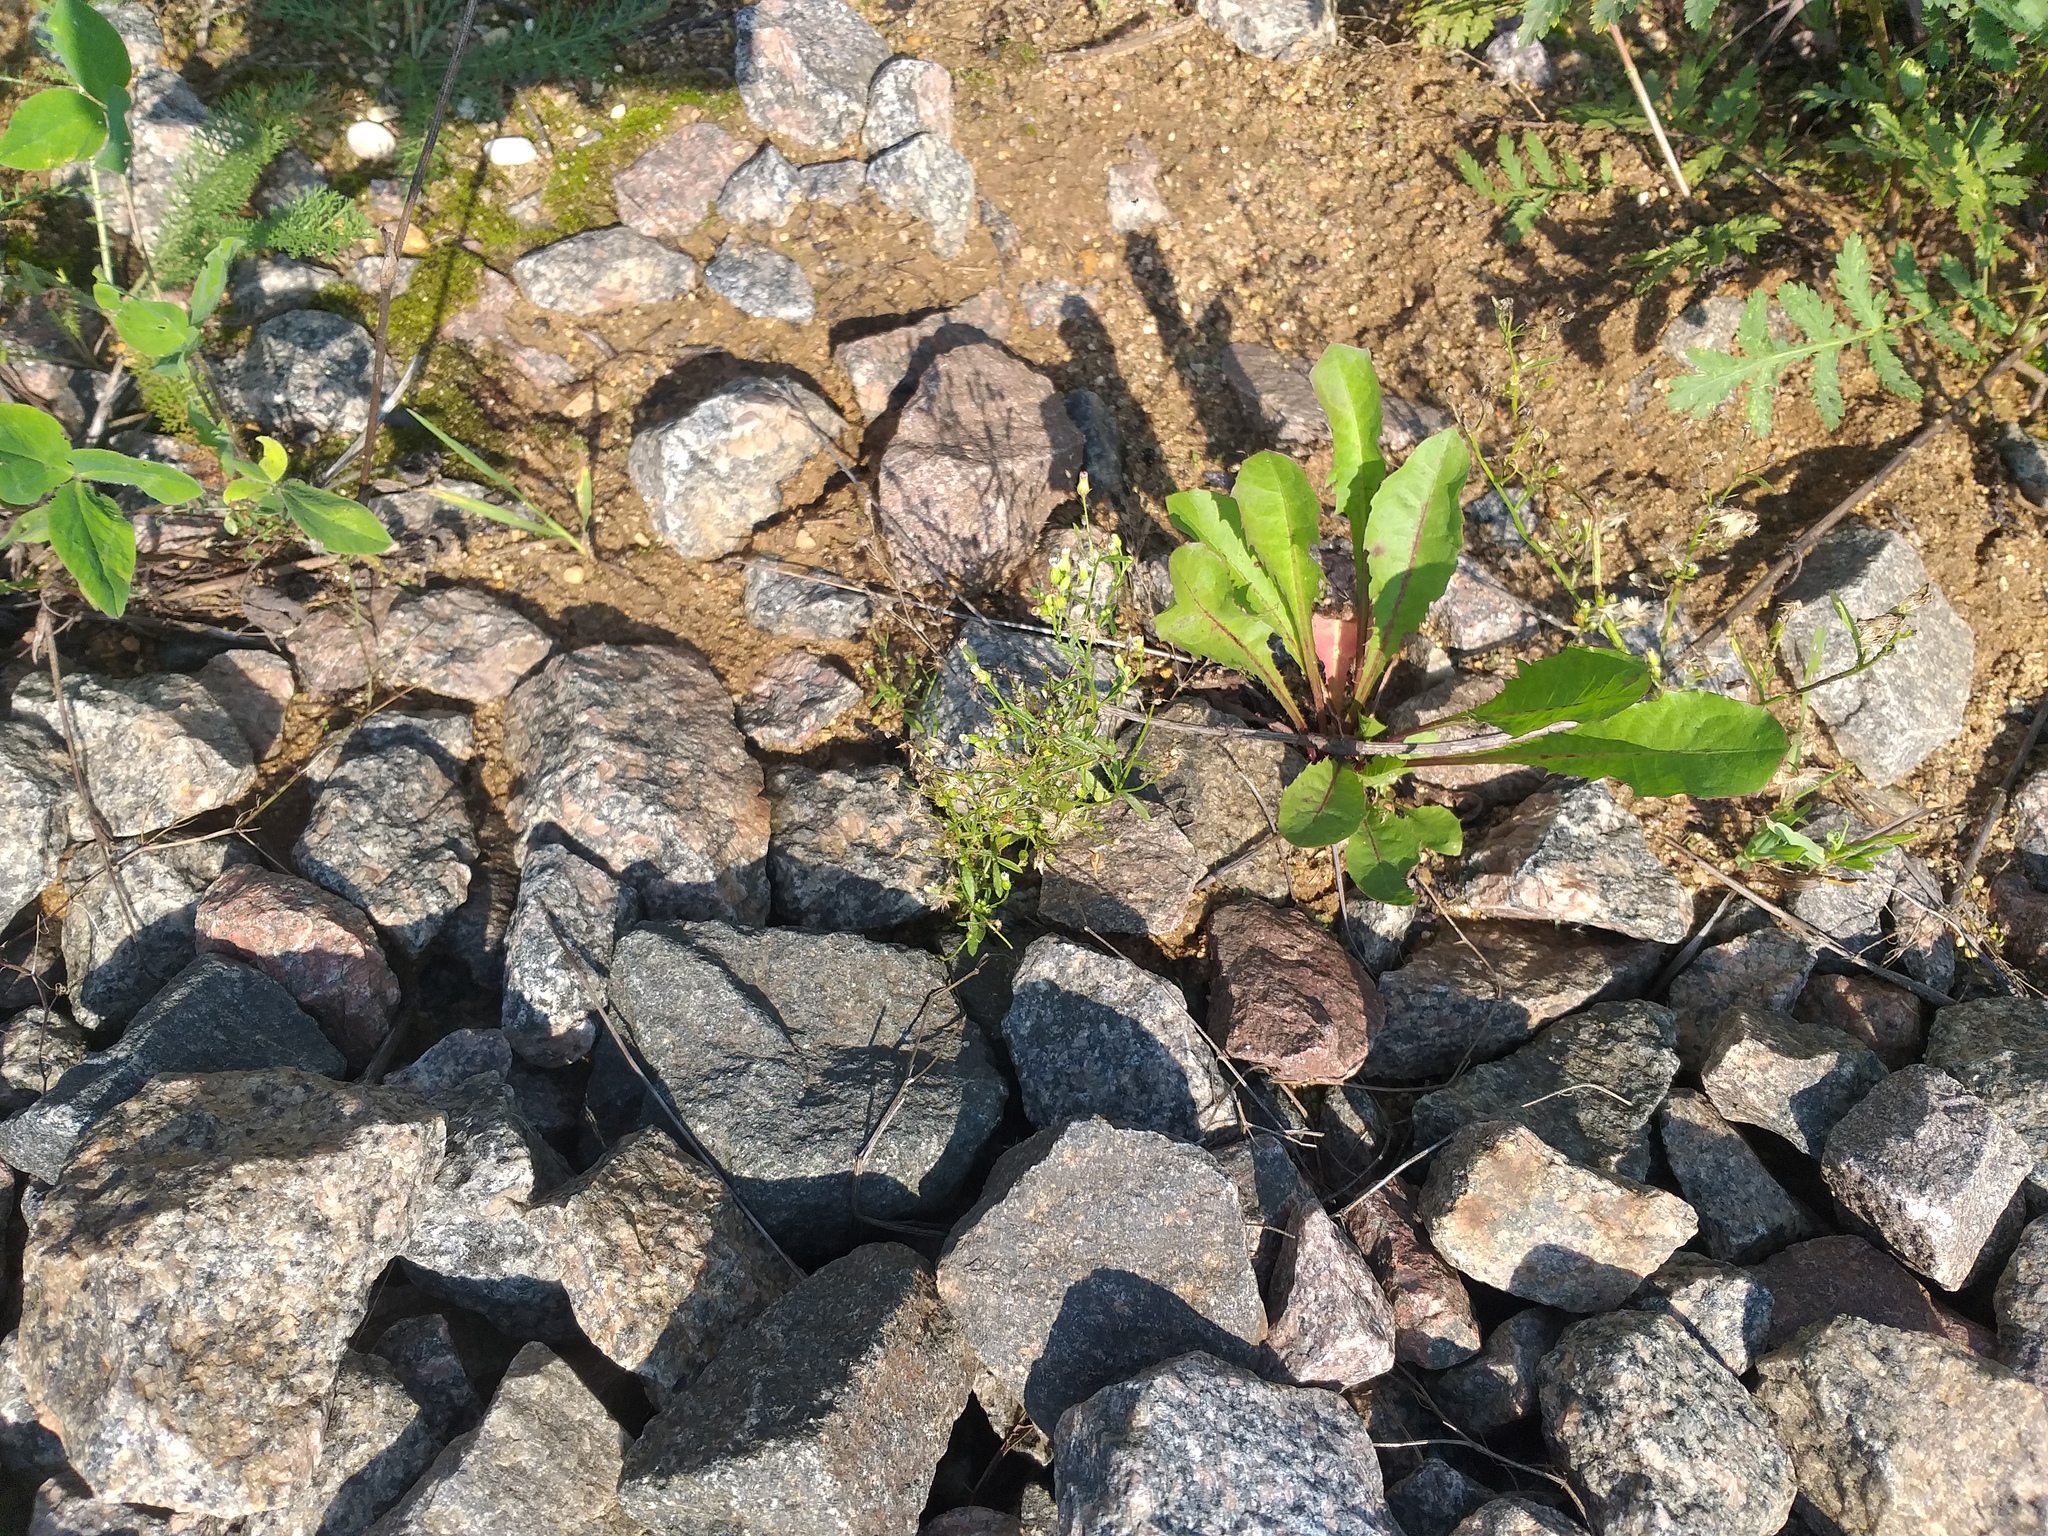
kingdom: Plantae
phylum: Tracheophyta
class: Magnoliopsida
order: Asterales
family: Asteraceae
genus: Erigeron
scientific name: Erigeron canadensis
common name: Canadian fleabane
